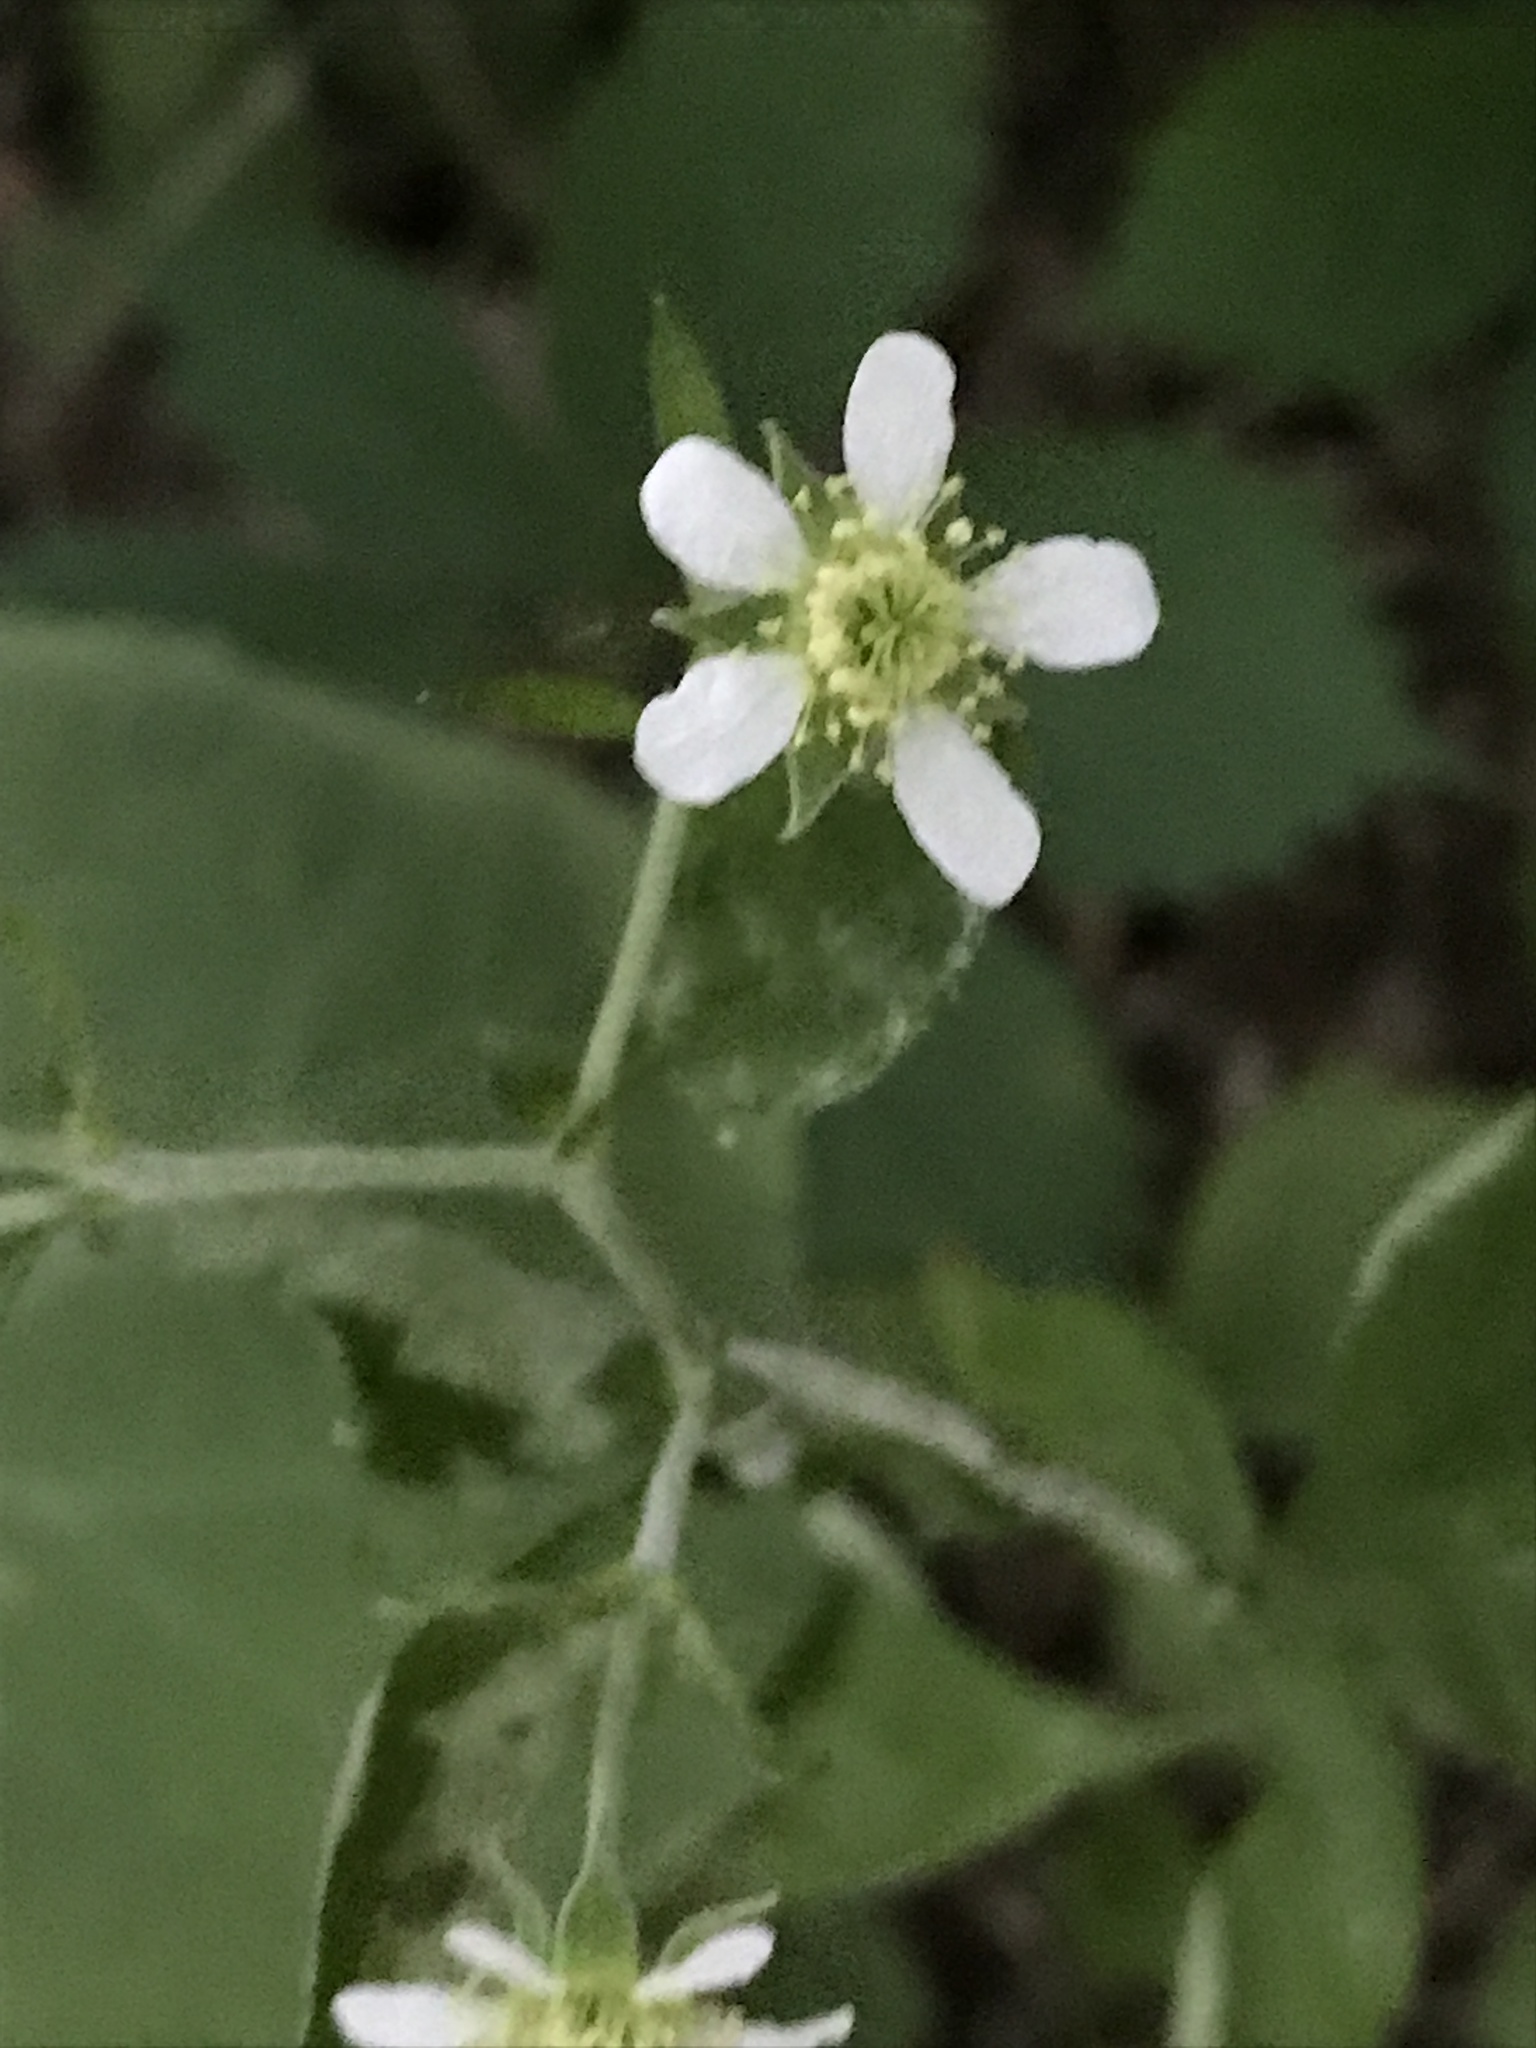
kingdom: Plantae
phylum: Tracheophyta
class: Magnoliopsida
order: Rosales
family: Rosaceae
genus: Geum
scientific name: Geum canadense
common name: White avens
